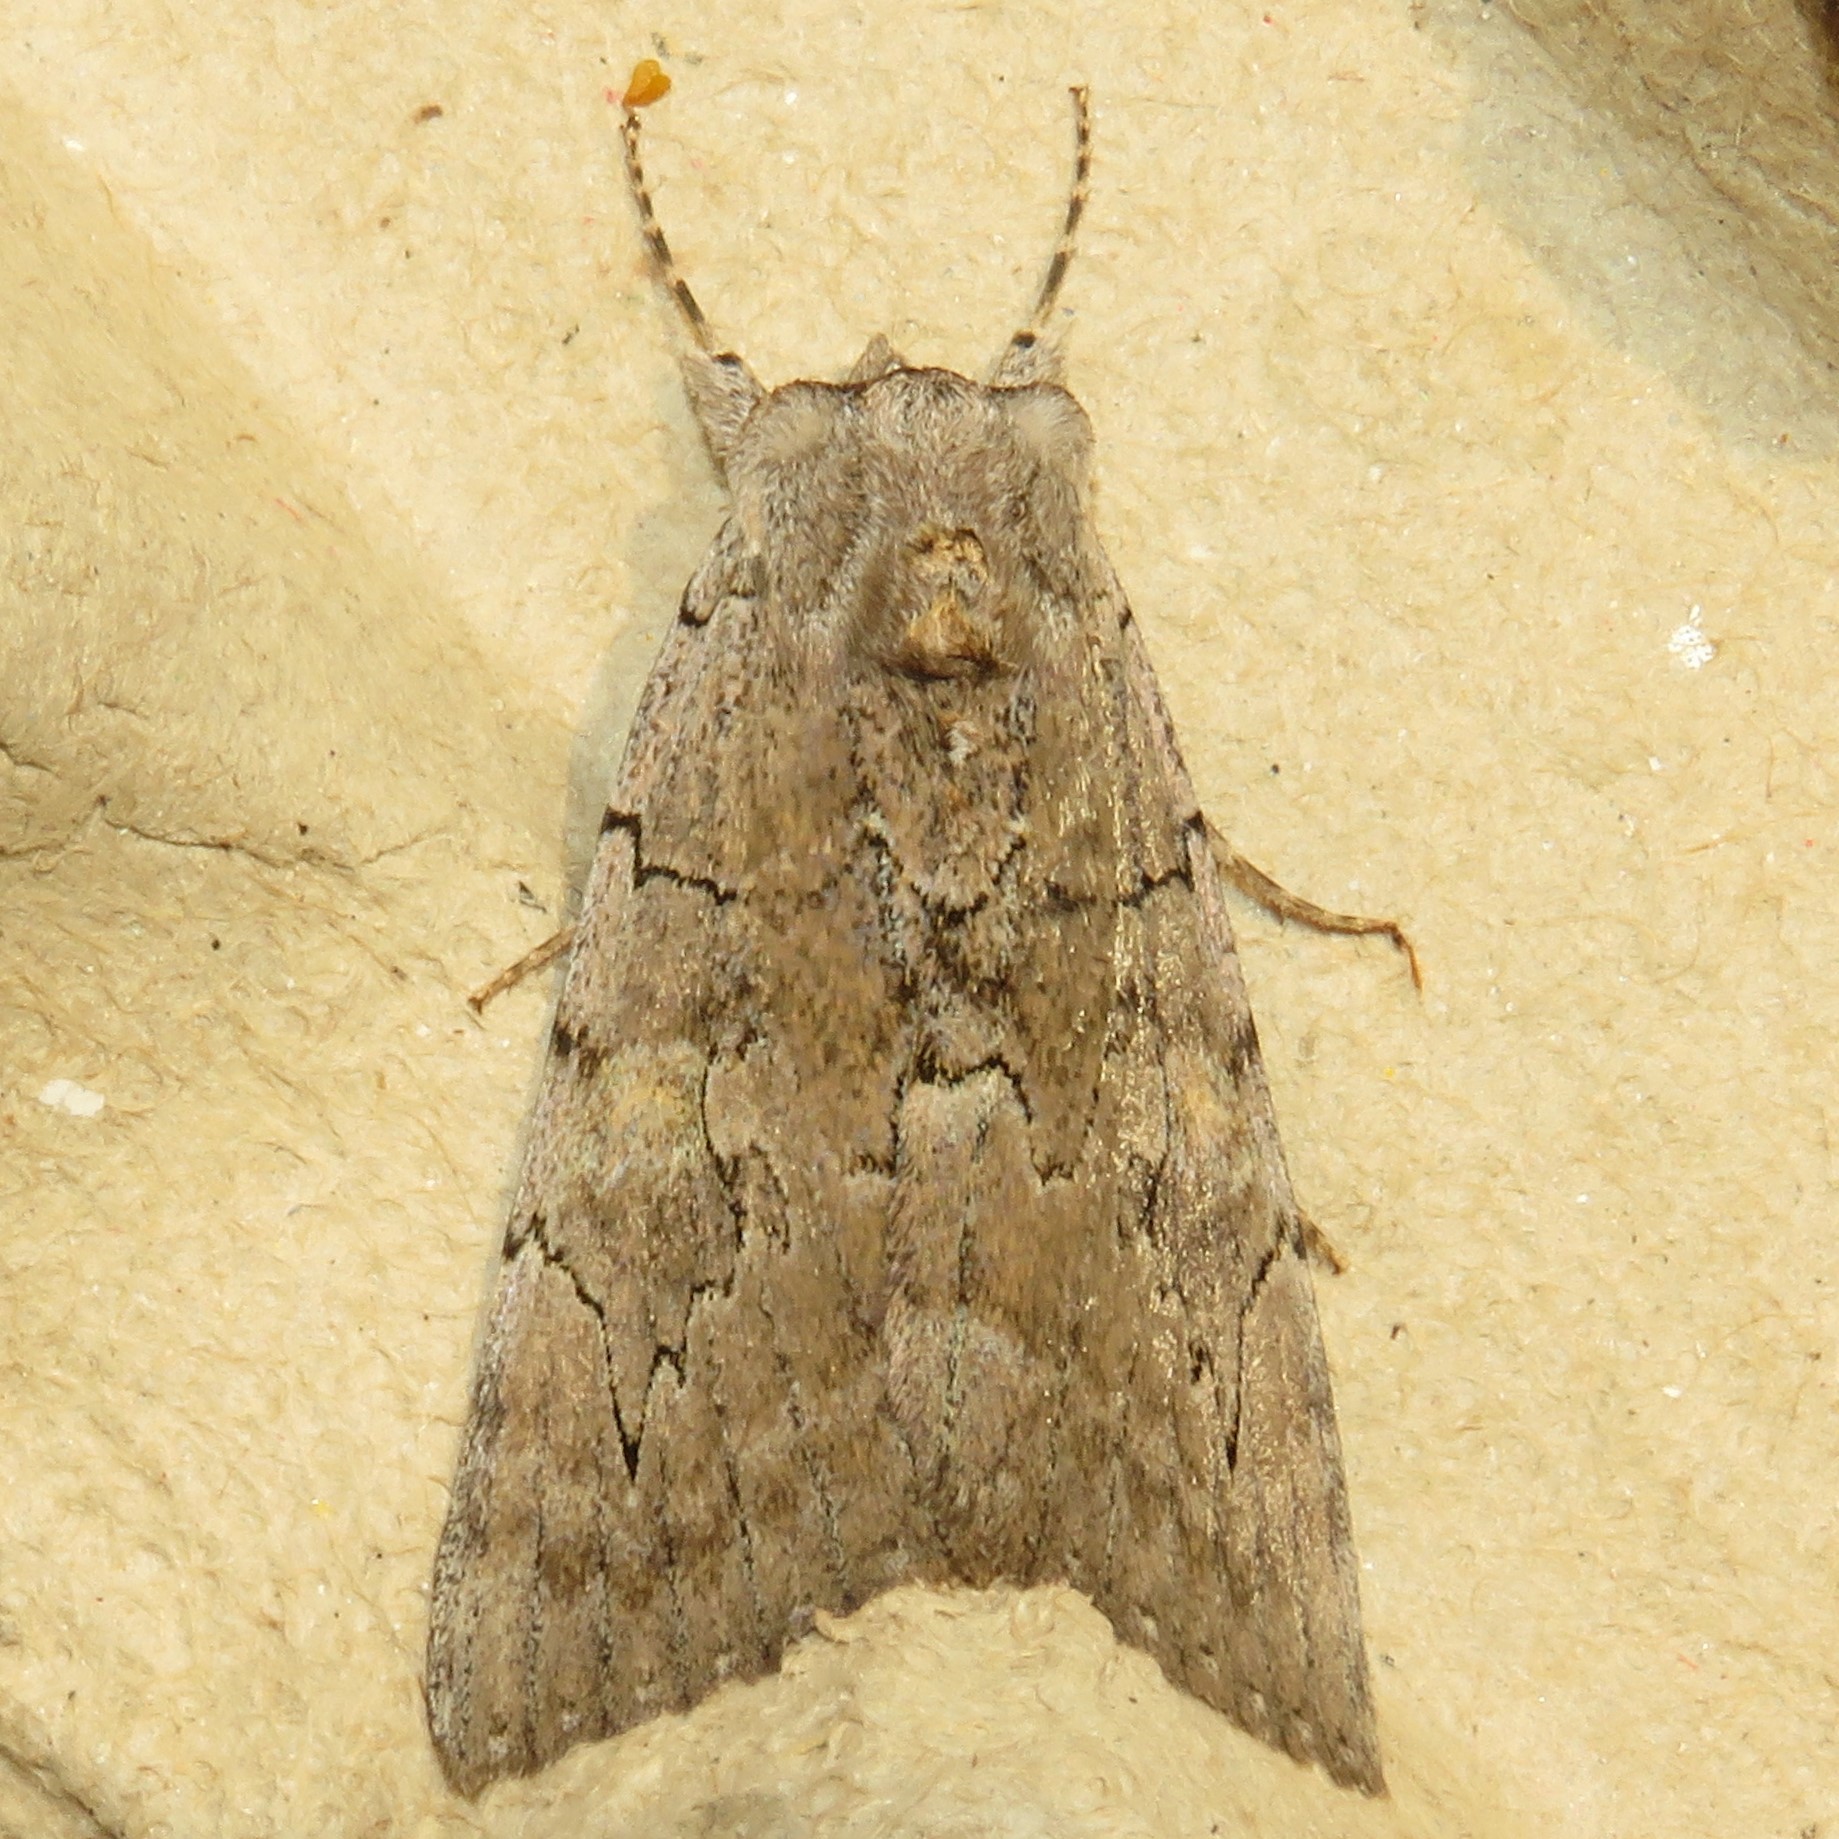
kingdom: Animalia
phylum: Arthropoda
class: Insecta
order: Lepidoptera
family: Erebidae
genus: Catocala
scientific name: Catocala concumbens
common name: Pink underwing
